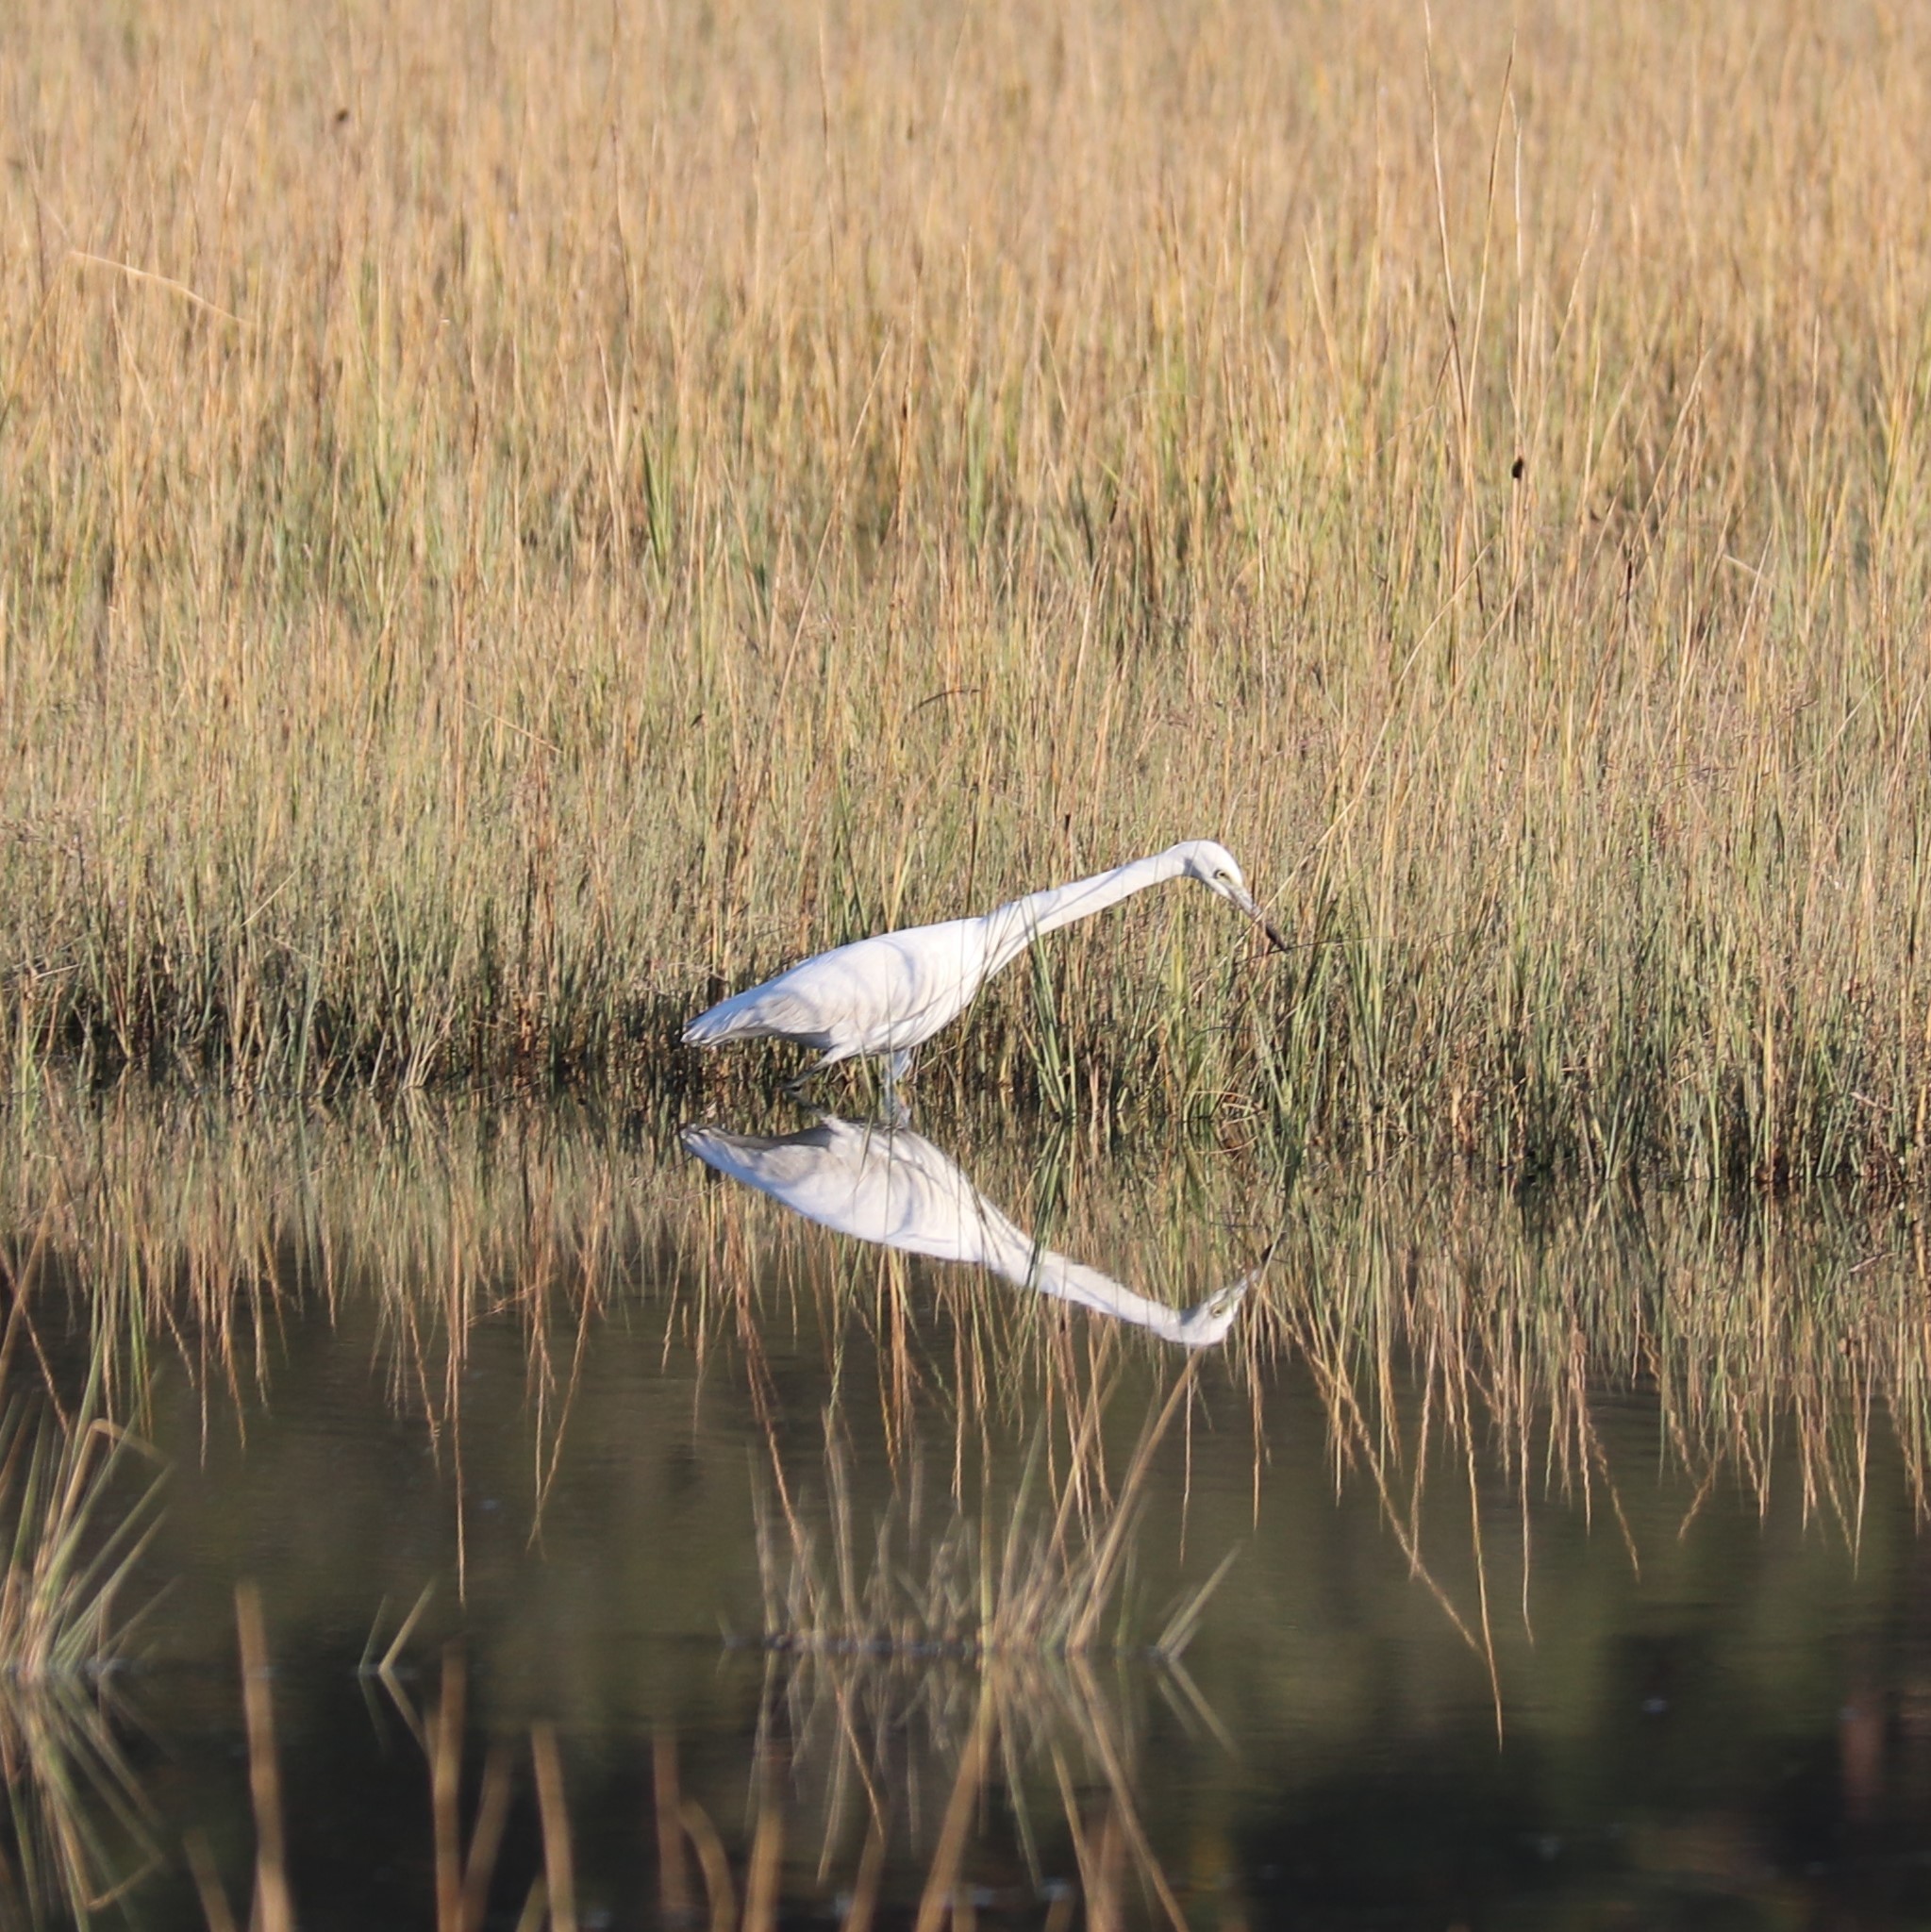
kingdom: Animalia
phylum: Chordata
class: Aves
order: Pelecaniformes
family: Ardeidae
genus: Egretta
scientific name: Egretta caerulea
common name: Little blue heron
